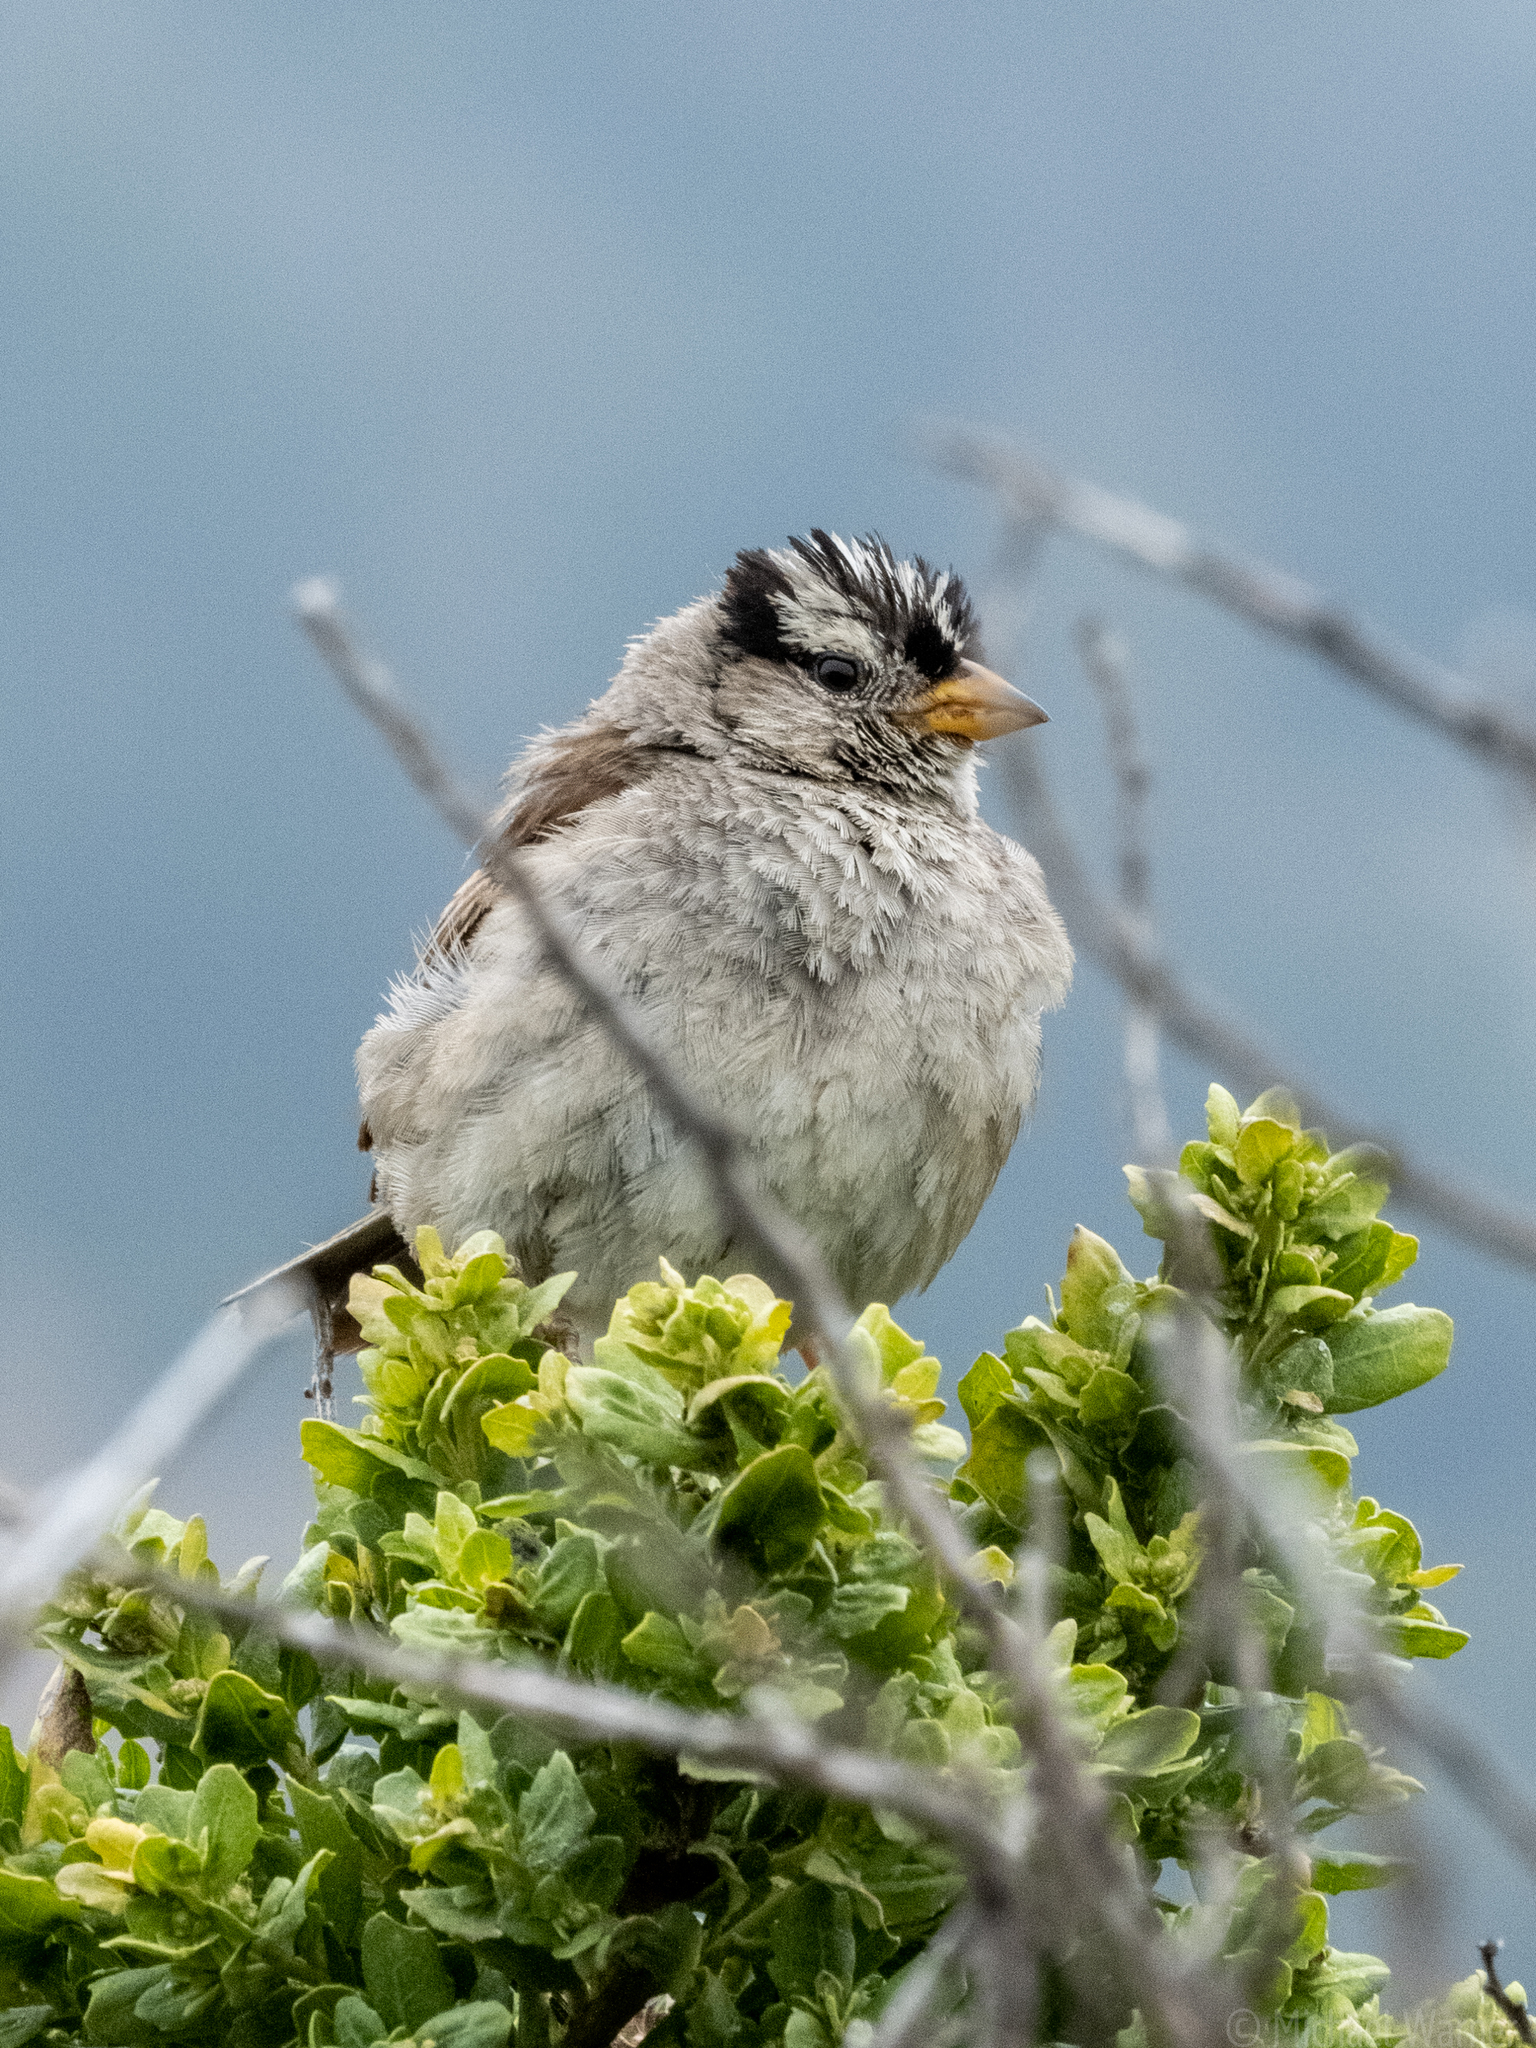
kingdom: Animalia
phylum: Chordata
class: Aves
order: Passeriformes
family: Passerellidae
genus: Zonotrichia
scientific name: Zonotrichia leucophrys
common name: White-crowned sparrow
